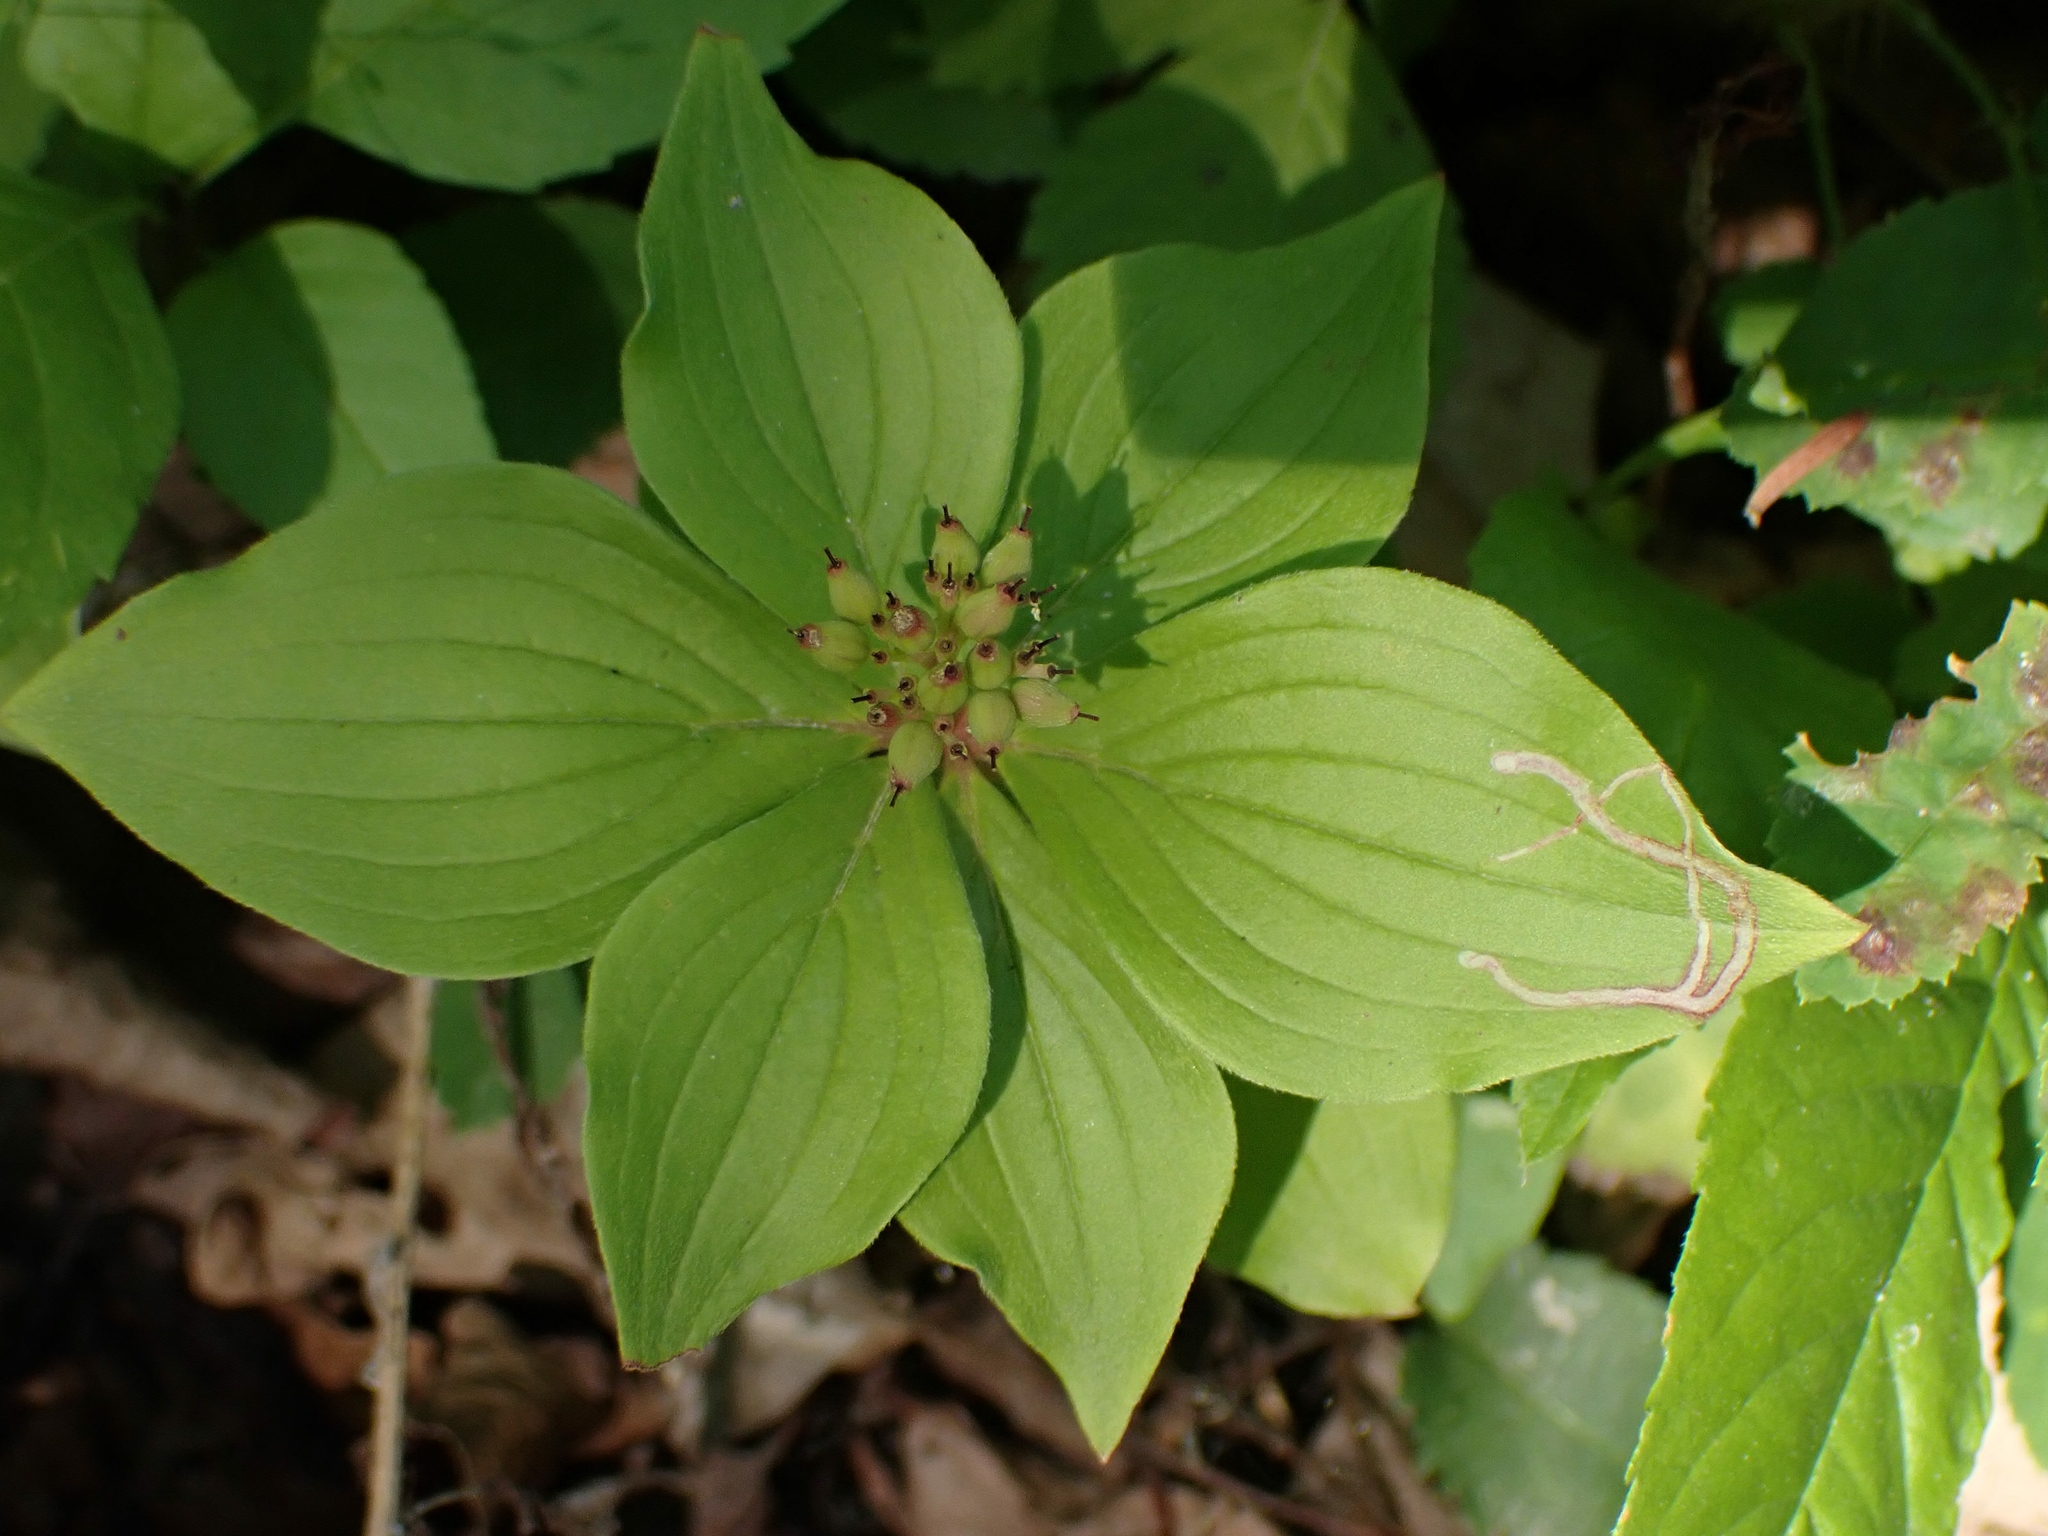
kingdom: Animalia
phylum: Arthropoda
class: Insecta
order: Diptera
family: Agromyzidae
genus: Phytomyza
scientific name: Phytomyza agromyzina
